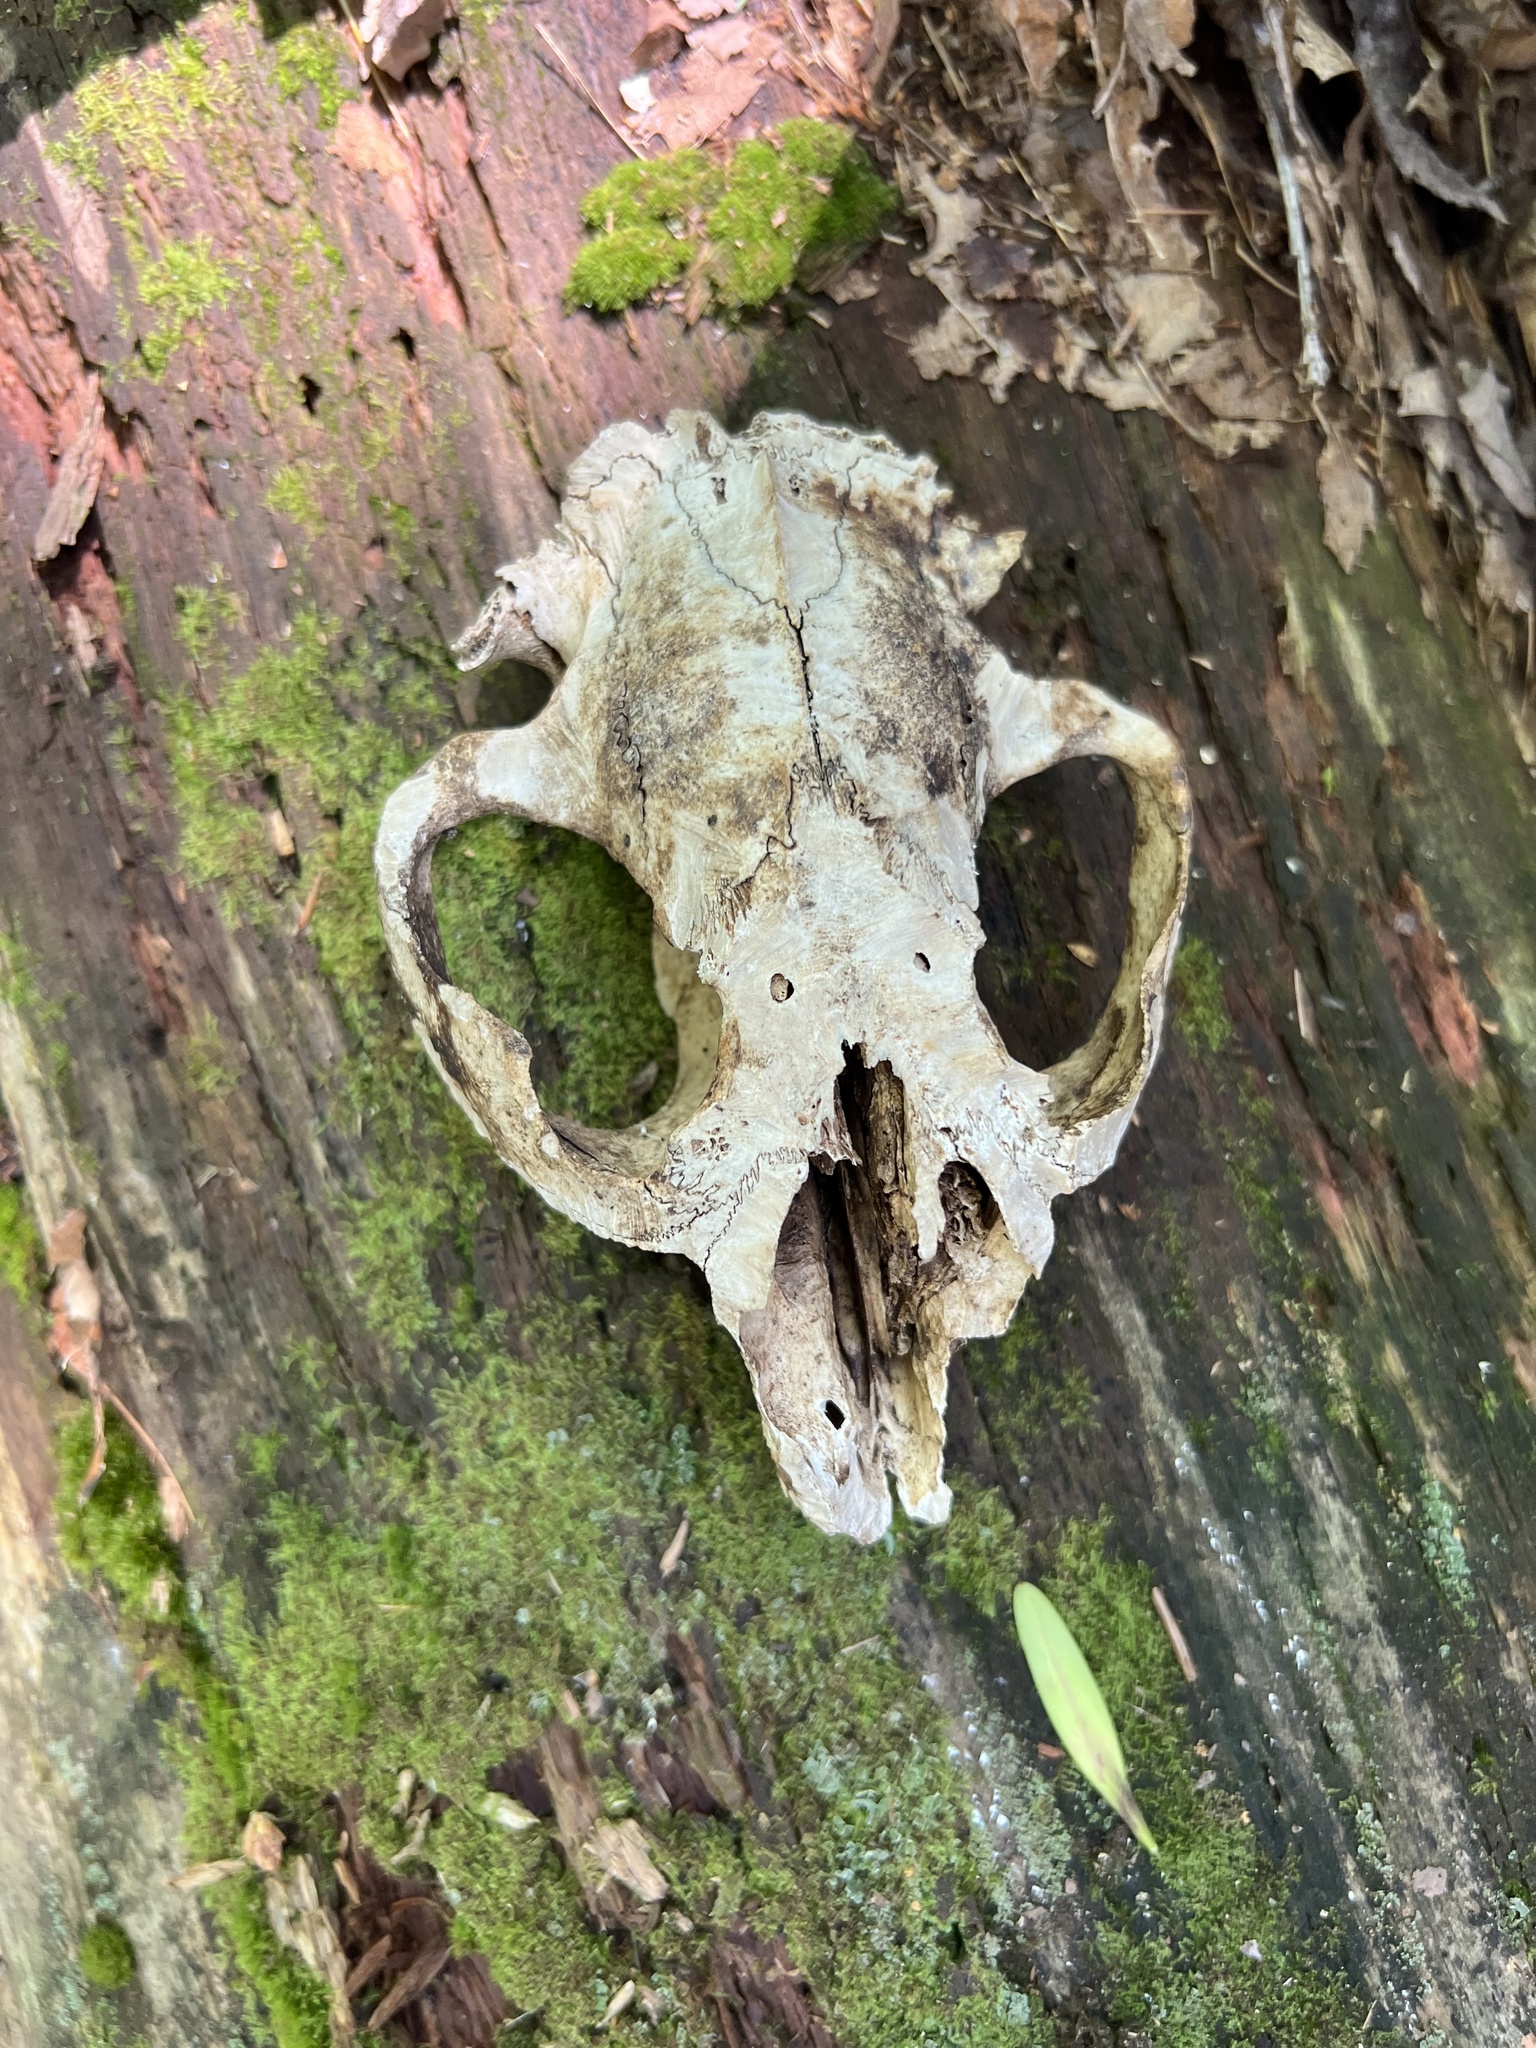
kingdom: Animalia
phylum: Chordata
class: Mammalia
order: Rodentia
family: Castoridae
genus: Castor
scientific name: Castor canadensis
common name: American beaver
